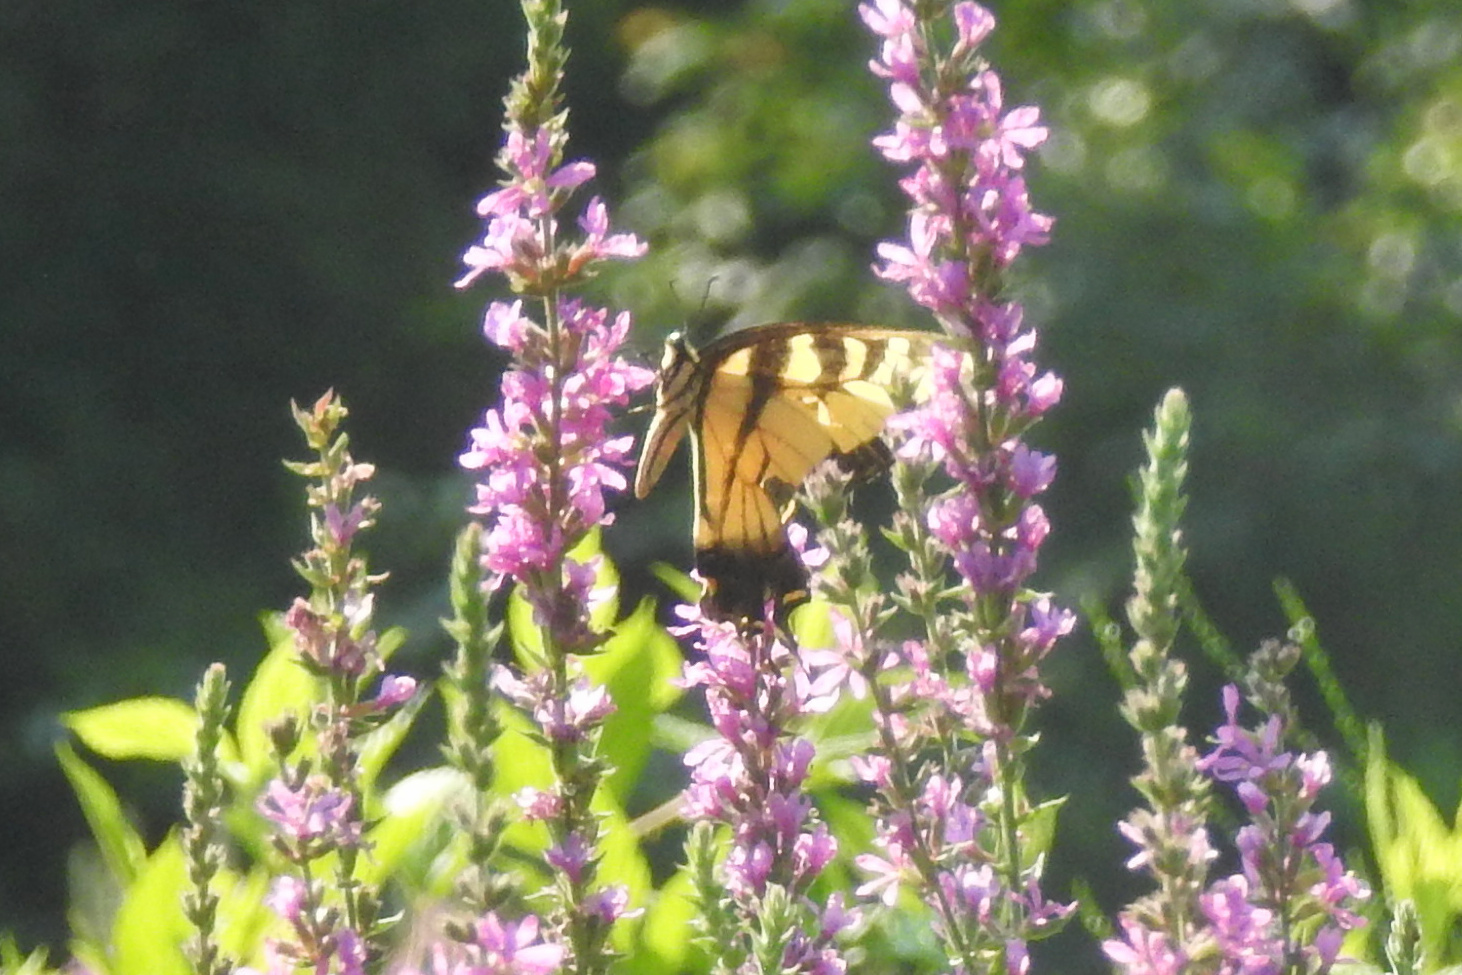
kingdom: Animalia
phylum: Arthropoda
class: Insecta
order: Lepidoptera
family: Papilionidae
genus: Papilio
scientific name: Papilio glaucus
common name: Tiger swallowtail
